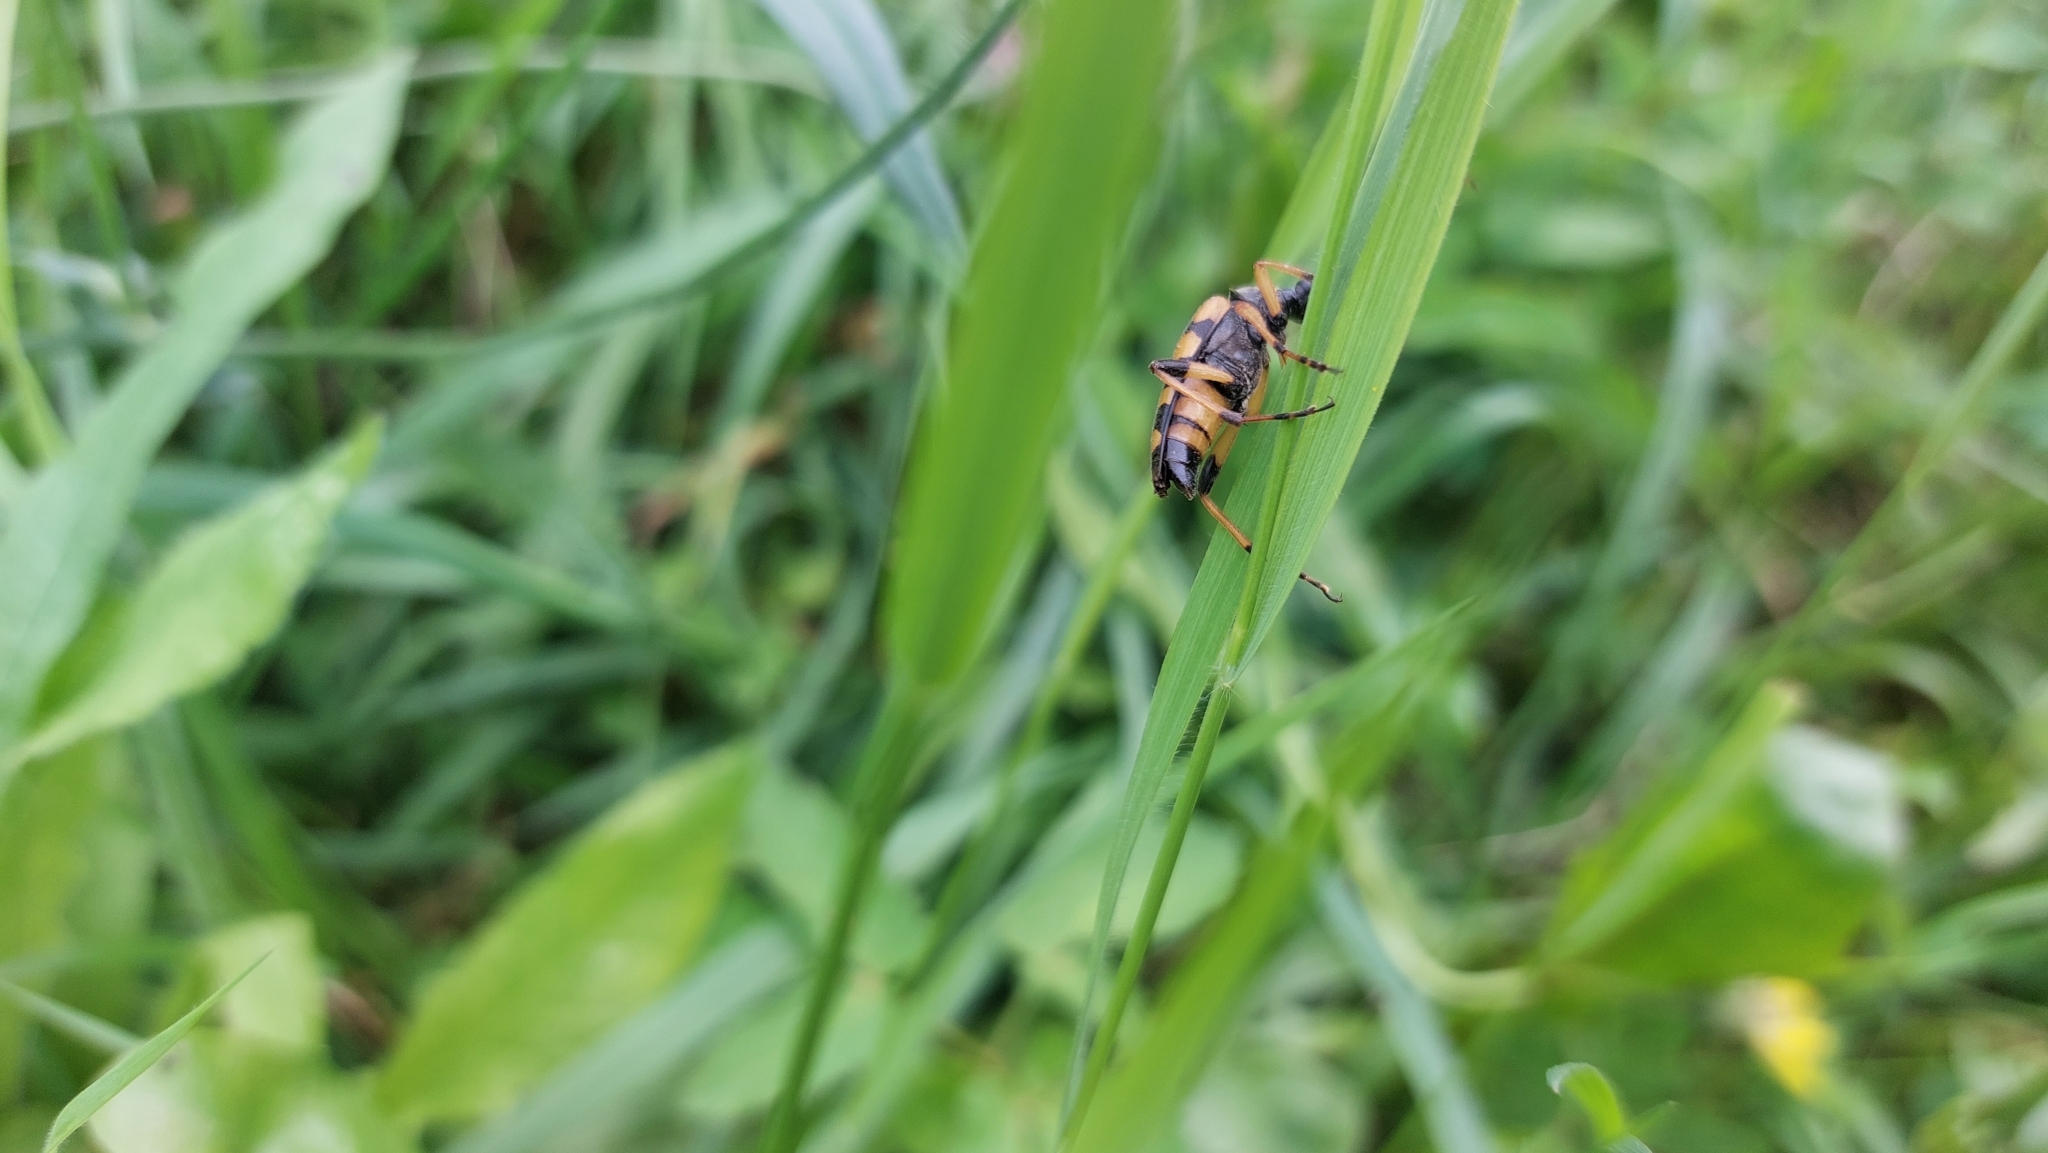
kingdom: Animalia
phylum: Arthropoda
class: Insecta
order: Coleoptera
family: Cerambycidae
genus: Rutpela
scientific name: Rutpela maculata
